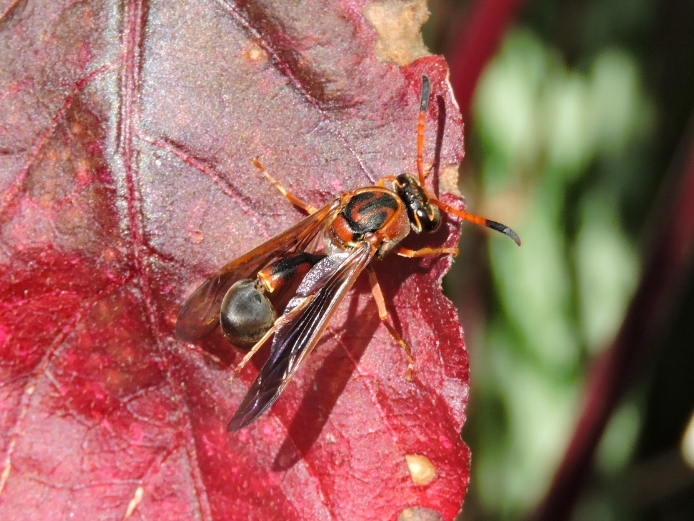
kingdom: Animalia
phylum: Arthropoda
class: Insecta
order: Hymenoptera
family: Eumenidae
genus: Zeta
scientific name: Zeta argillaceum
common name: Potter wasp
